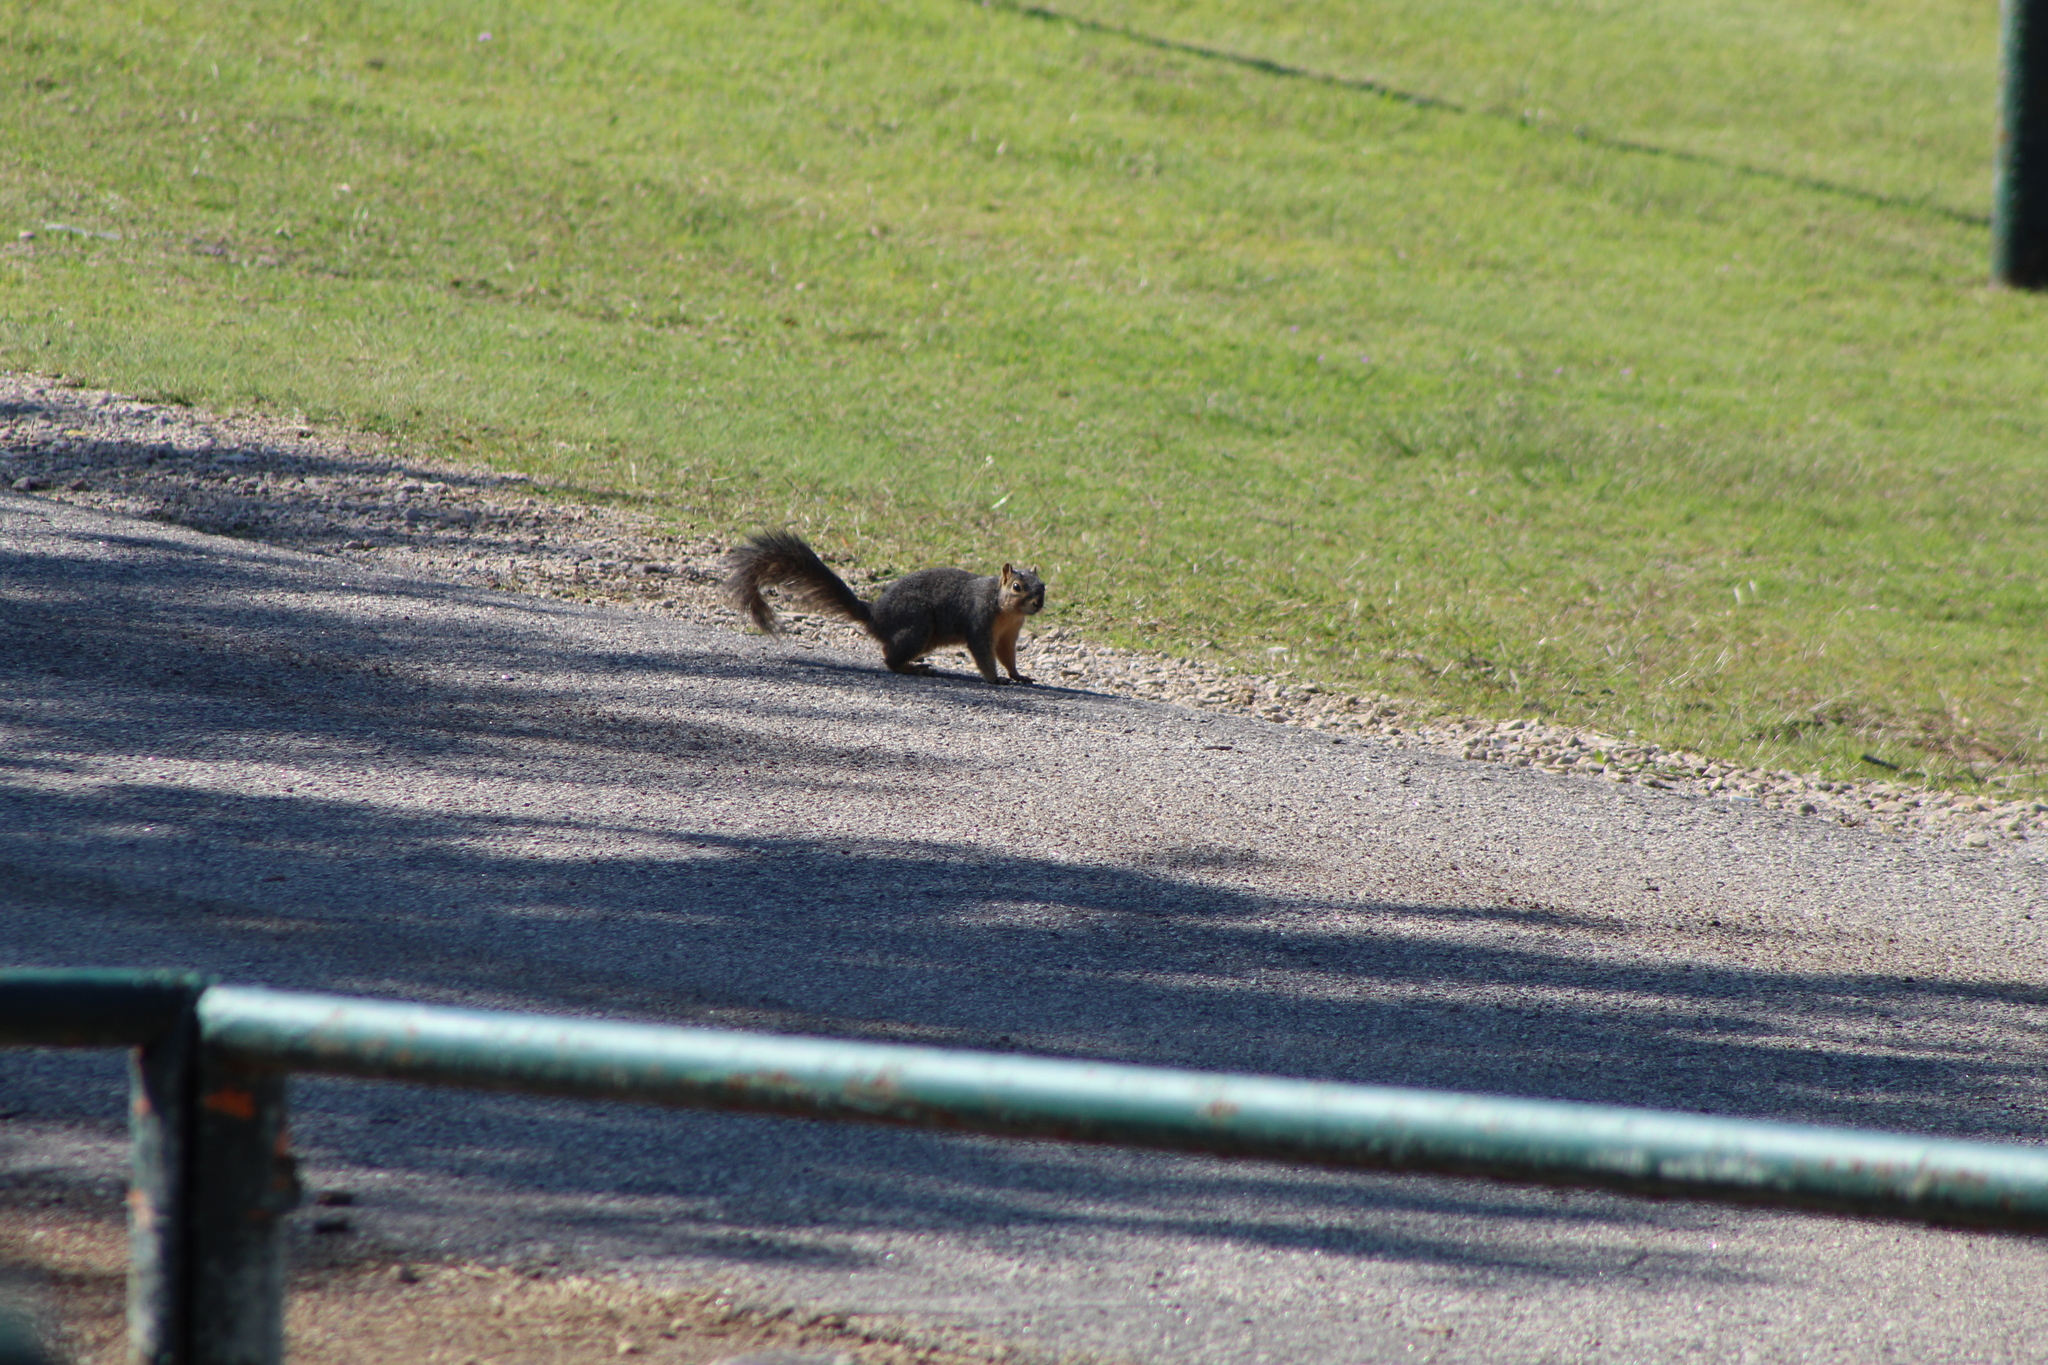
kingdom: Animalia
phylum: Chordata
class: Mammalia
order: Rodentia
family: Sciuridae
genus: Sciurus
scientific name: Sciurus niger
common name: Fox squirrel
